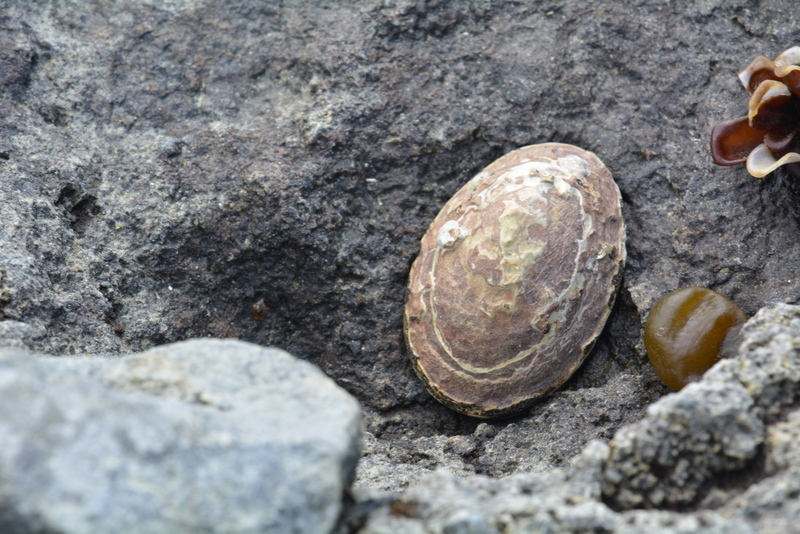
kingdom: Animalia
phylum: Mollusca
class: Gastropoda
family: Nacellidae
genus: Nacella
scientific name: Nacella concinna
